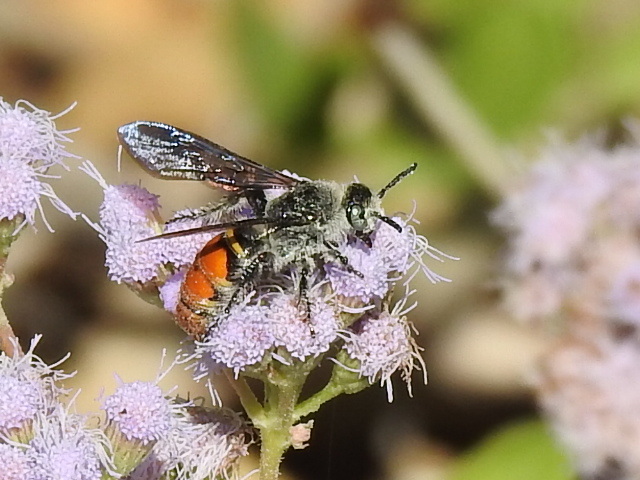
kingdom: Animalia
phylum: Arthropoda
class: Insecta
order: Hymenoptera
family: Scoliidae
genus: Dielis
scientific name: Dielis tolteca
